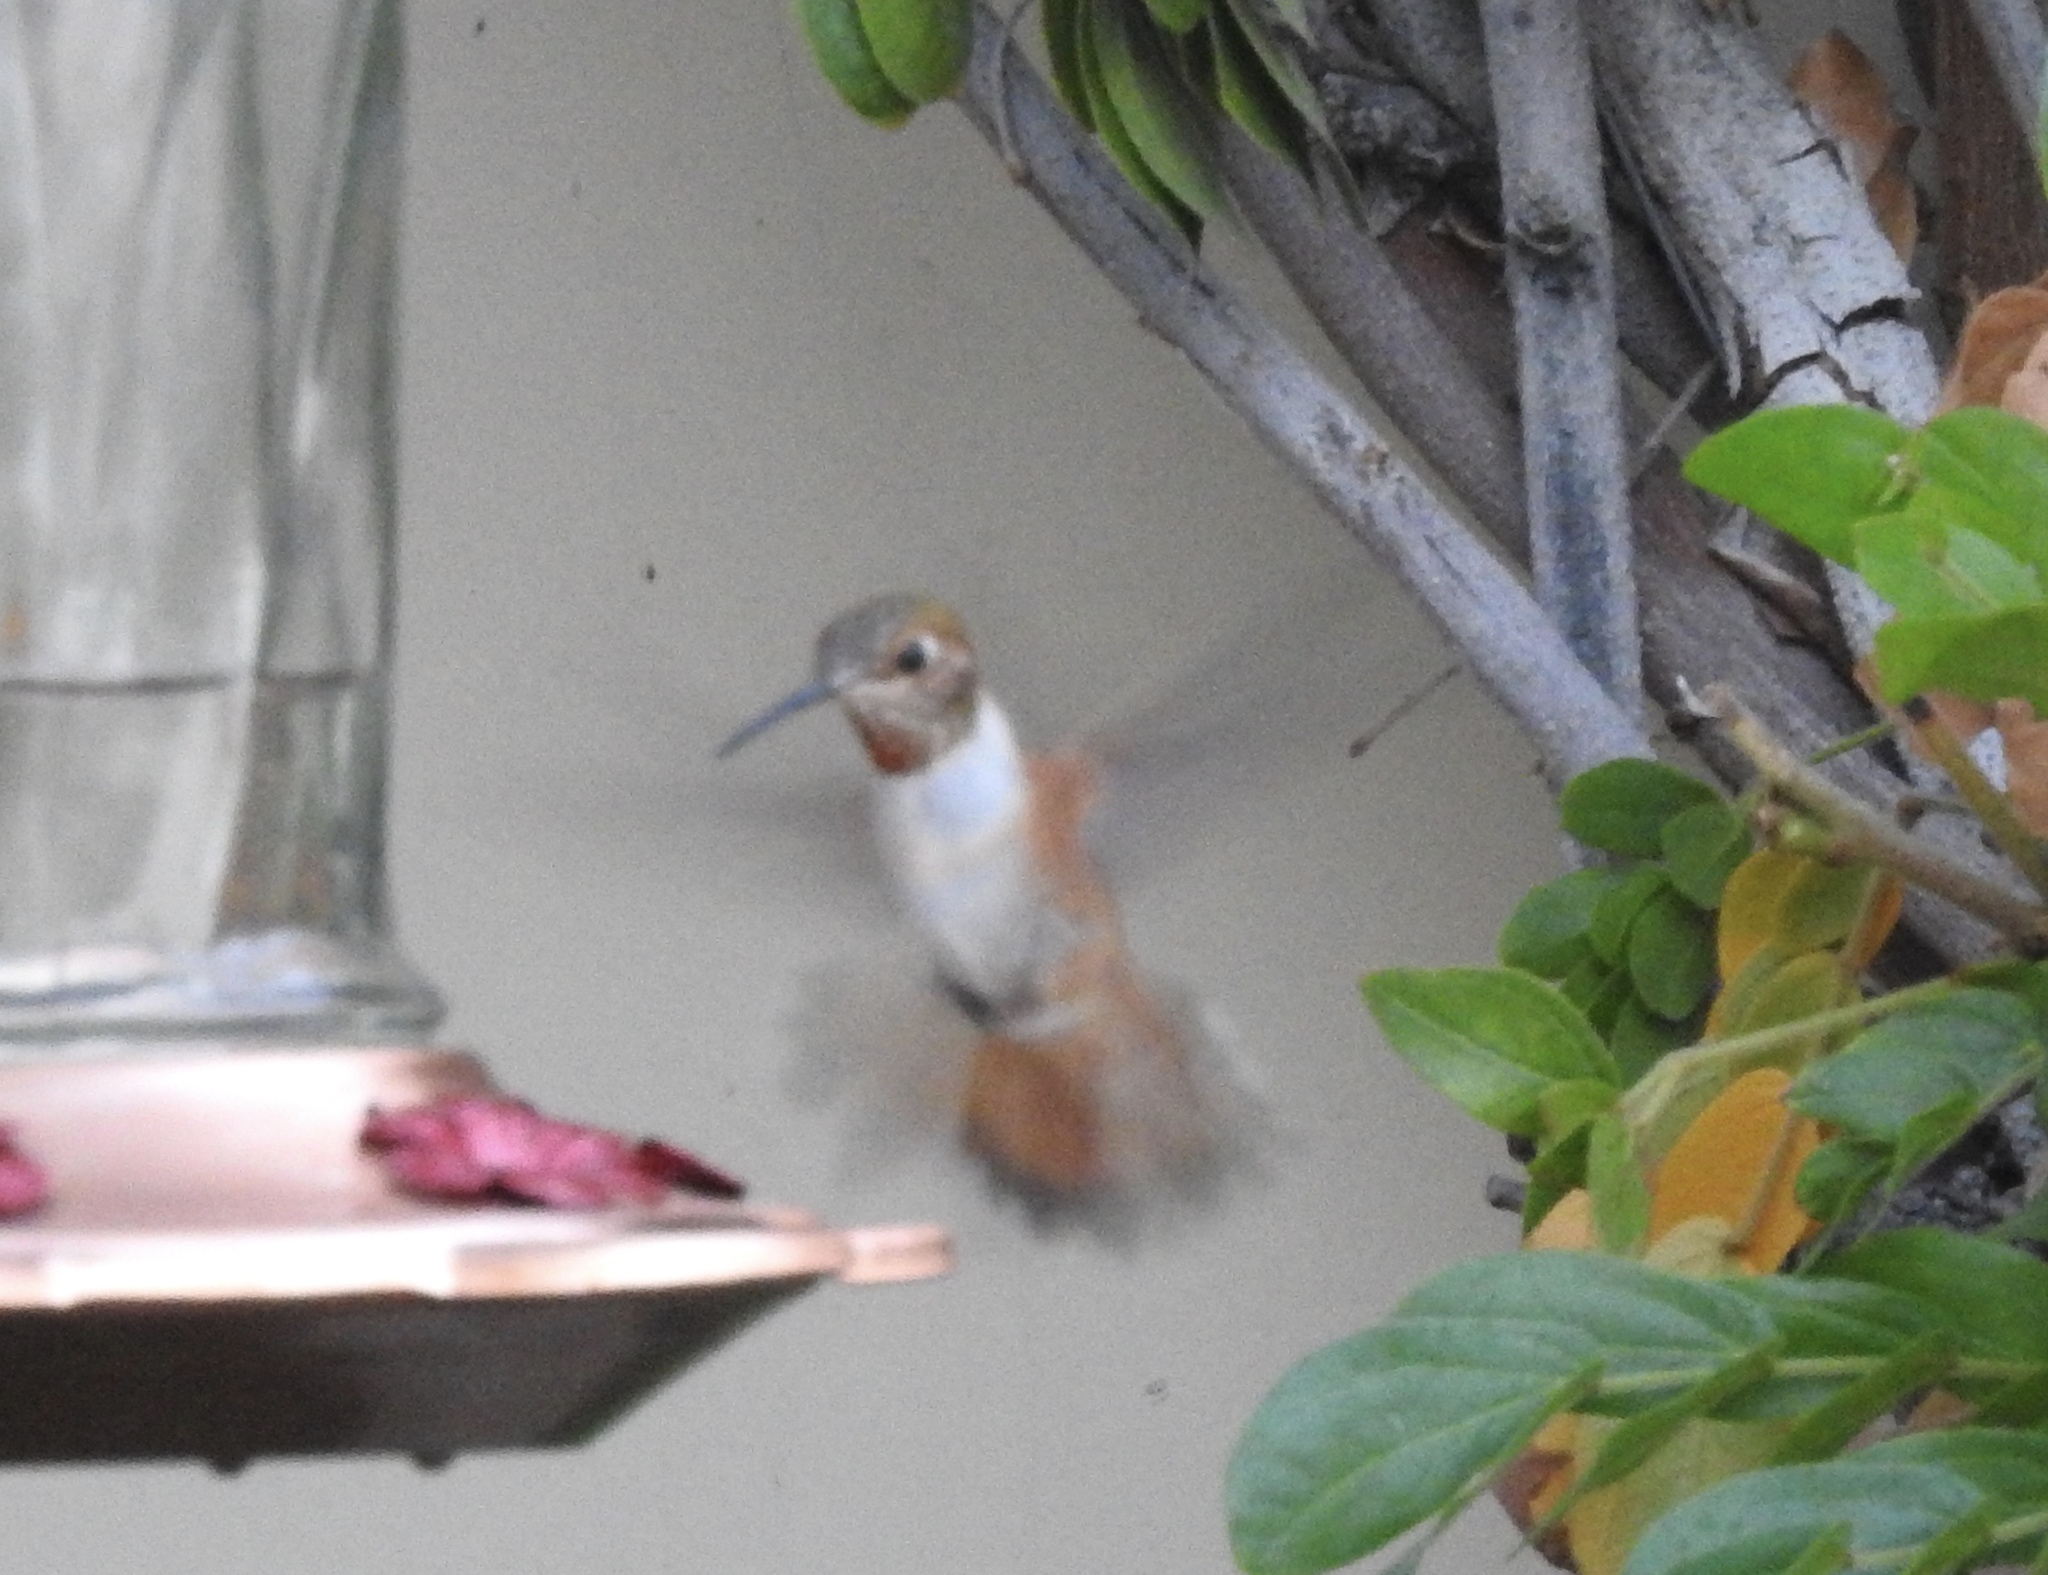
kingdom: Animalia
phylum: Chordata
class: Aves
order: Apodiformes
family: Trochilidae
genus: Selasphorus
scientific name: Selasphorus rufus
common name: Rufous hummingbird
